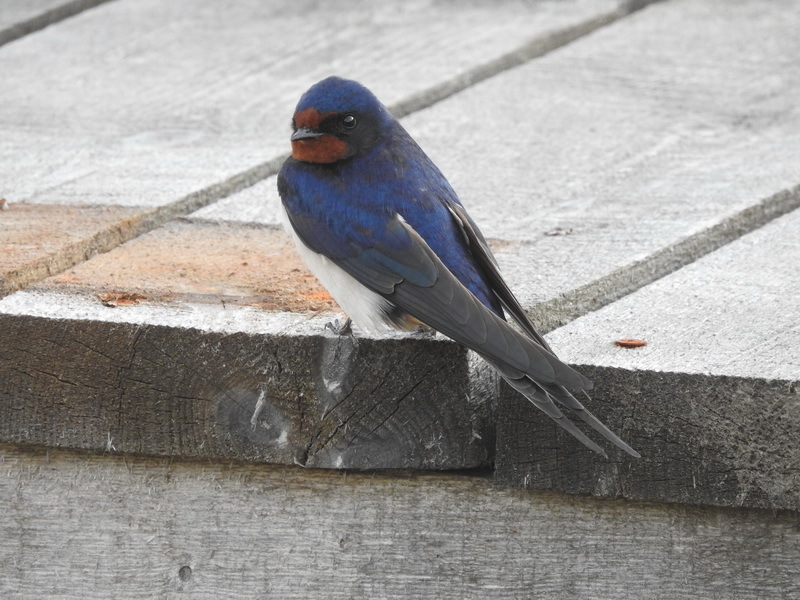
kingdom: Animalia
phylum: Chordata
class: Aves
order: Passeriformes
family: Hirundinidae
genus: Hirundo
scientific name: Hirundo rustica
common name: Barn swallow
